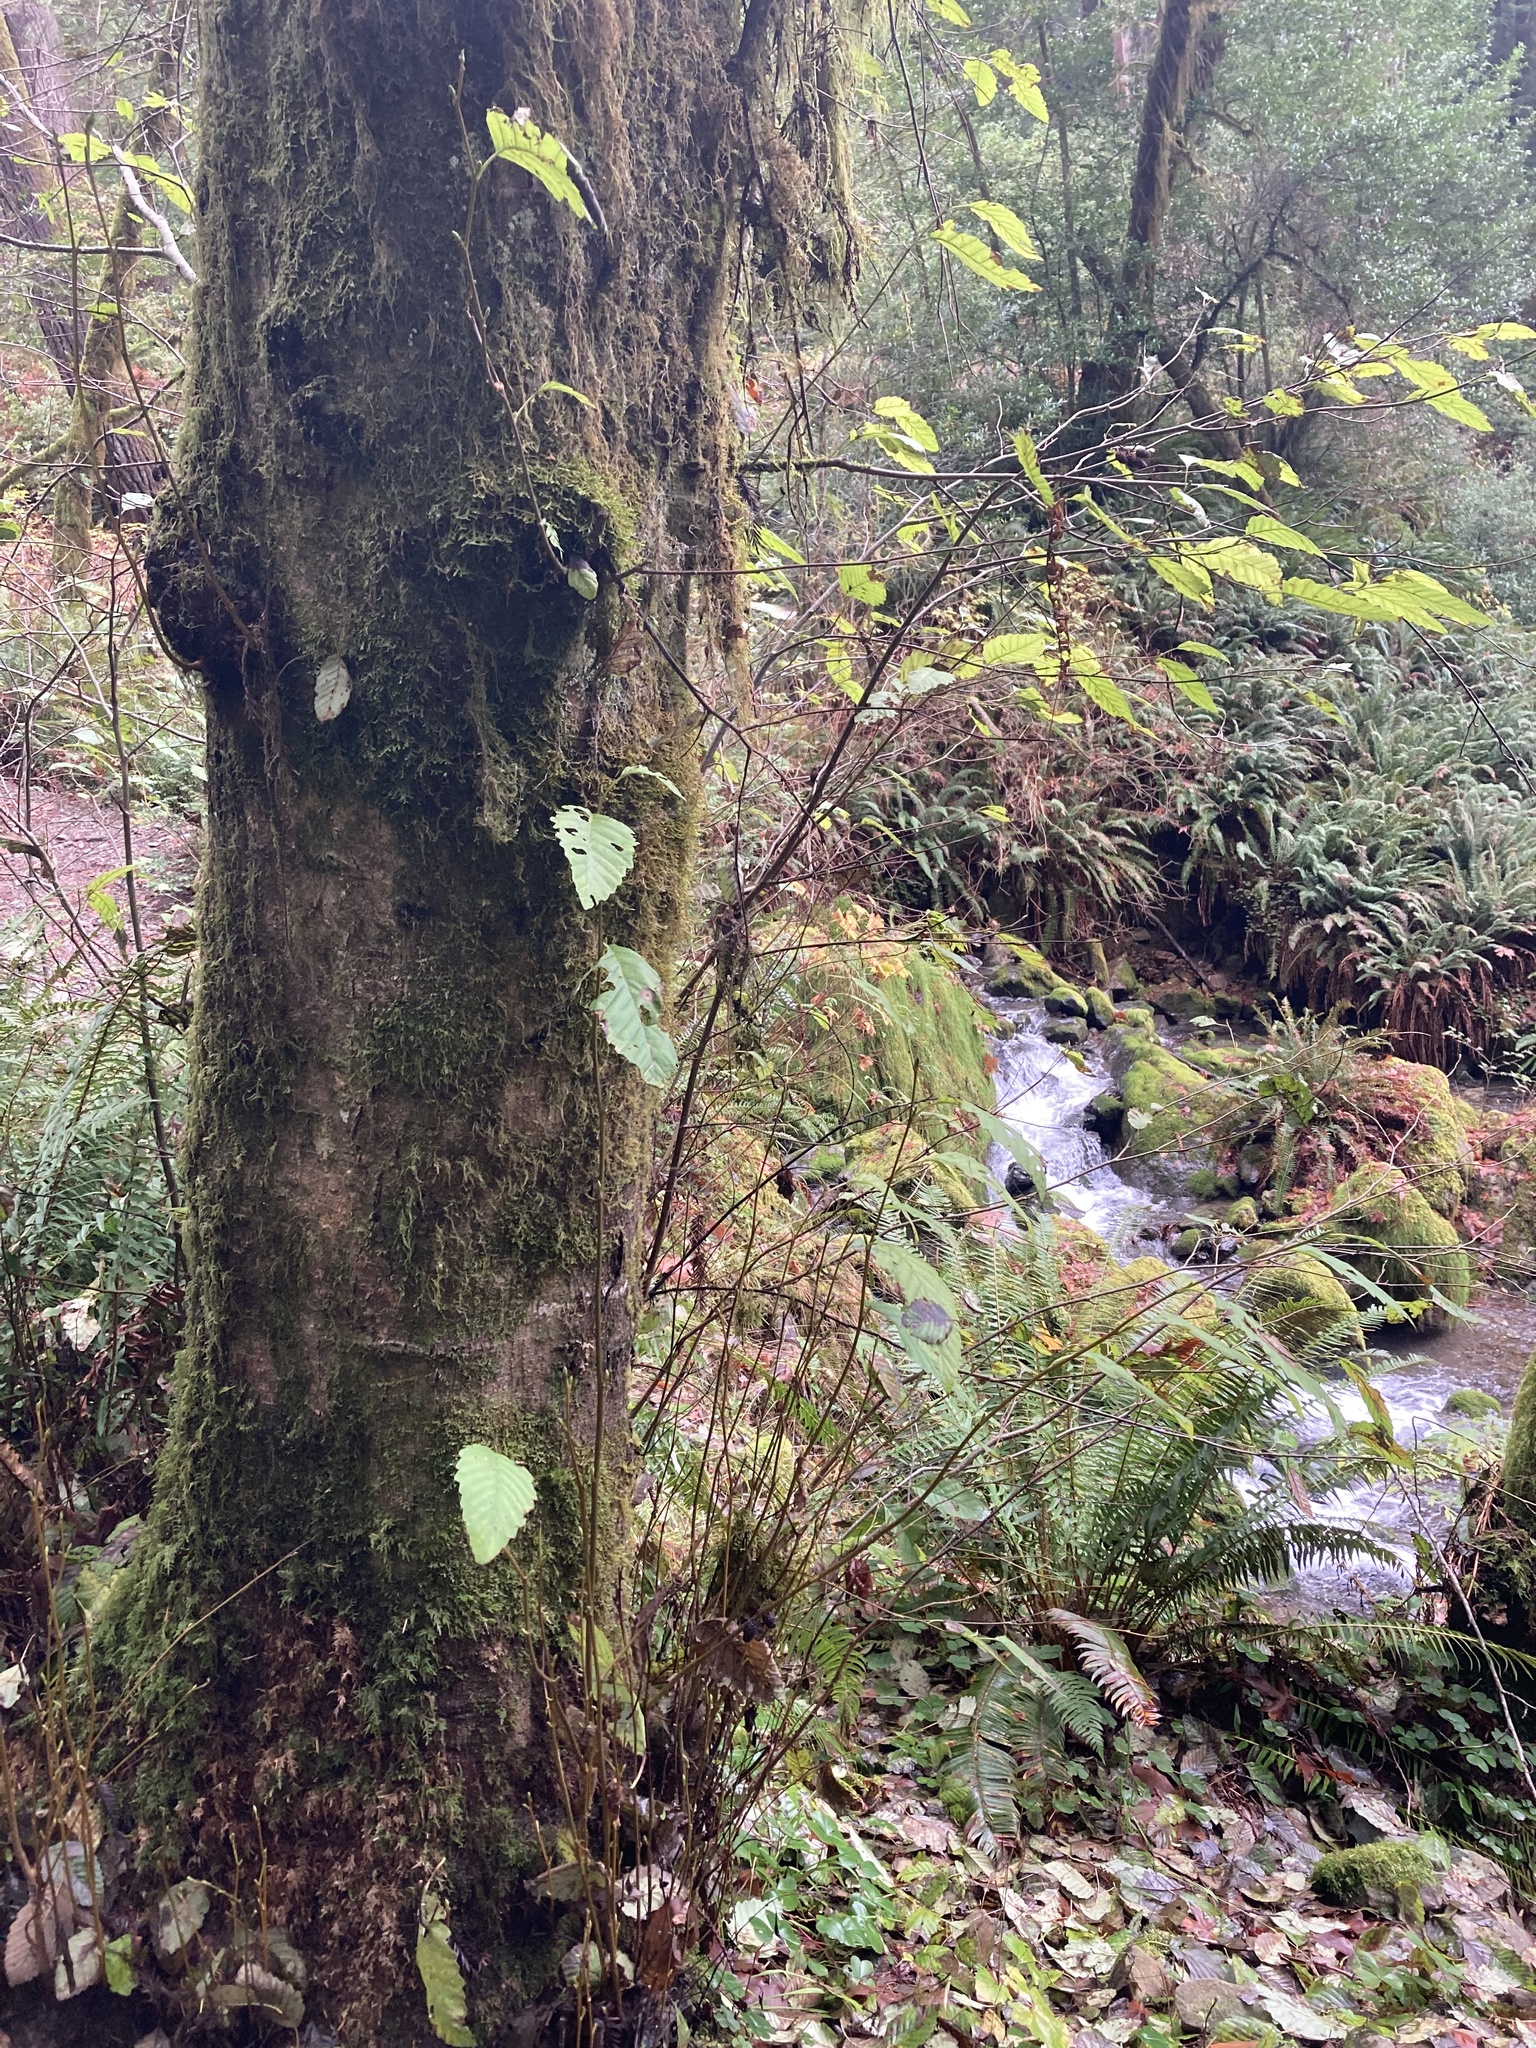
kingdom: Plantae
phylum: Tracheophyta
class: Magnoliopsida
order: Fagales
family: Betulaceae
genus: Alnus
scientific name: Alnus rubra
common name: Red alder
